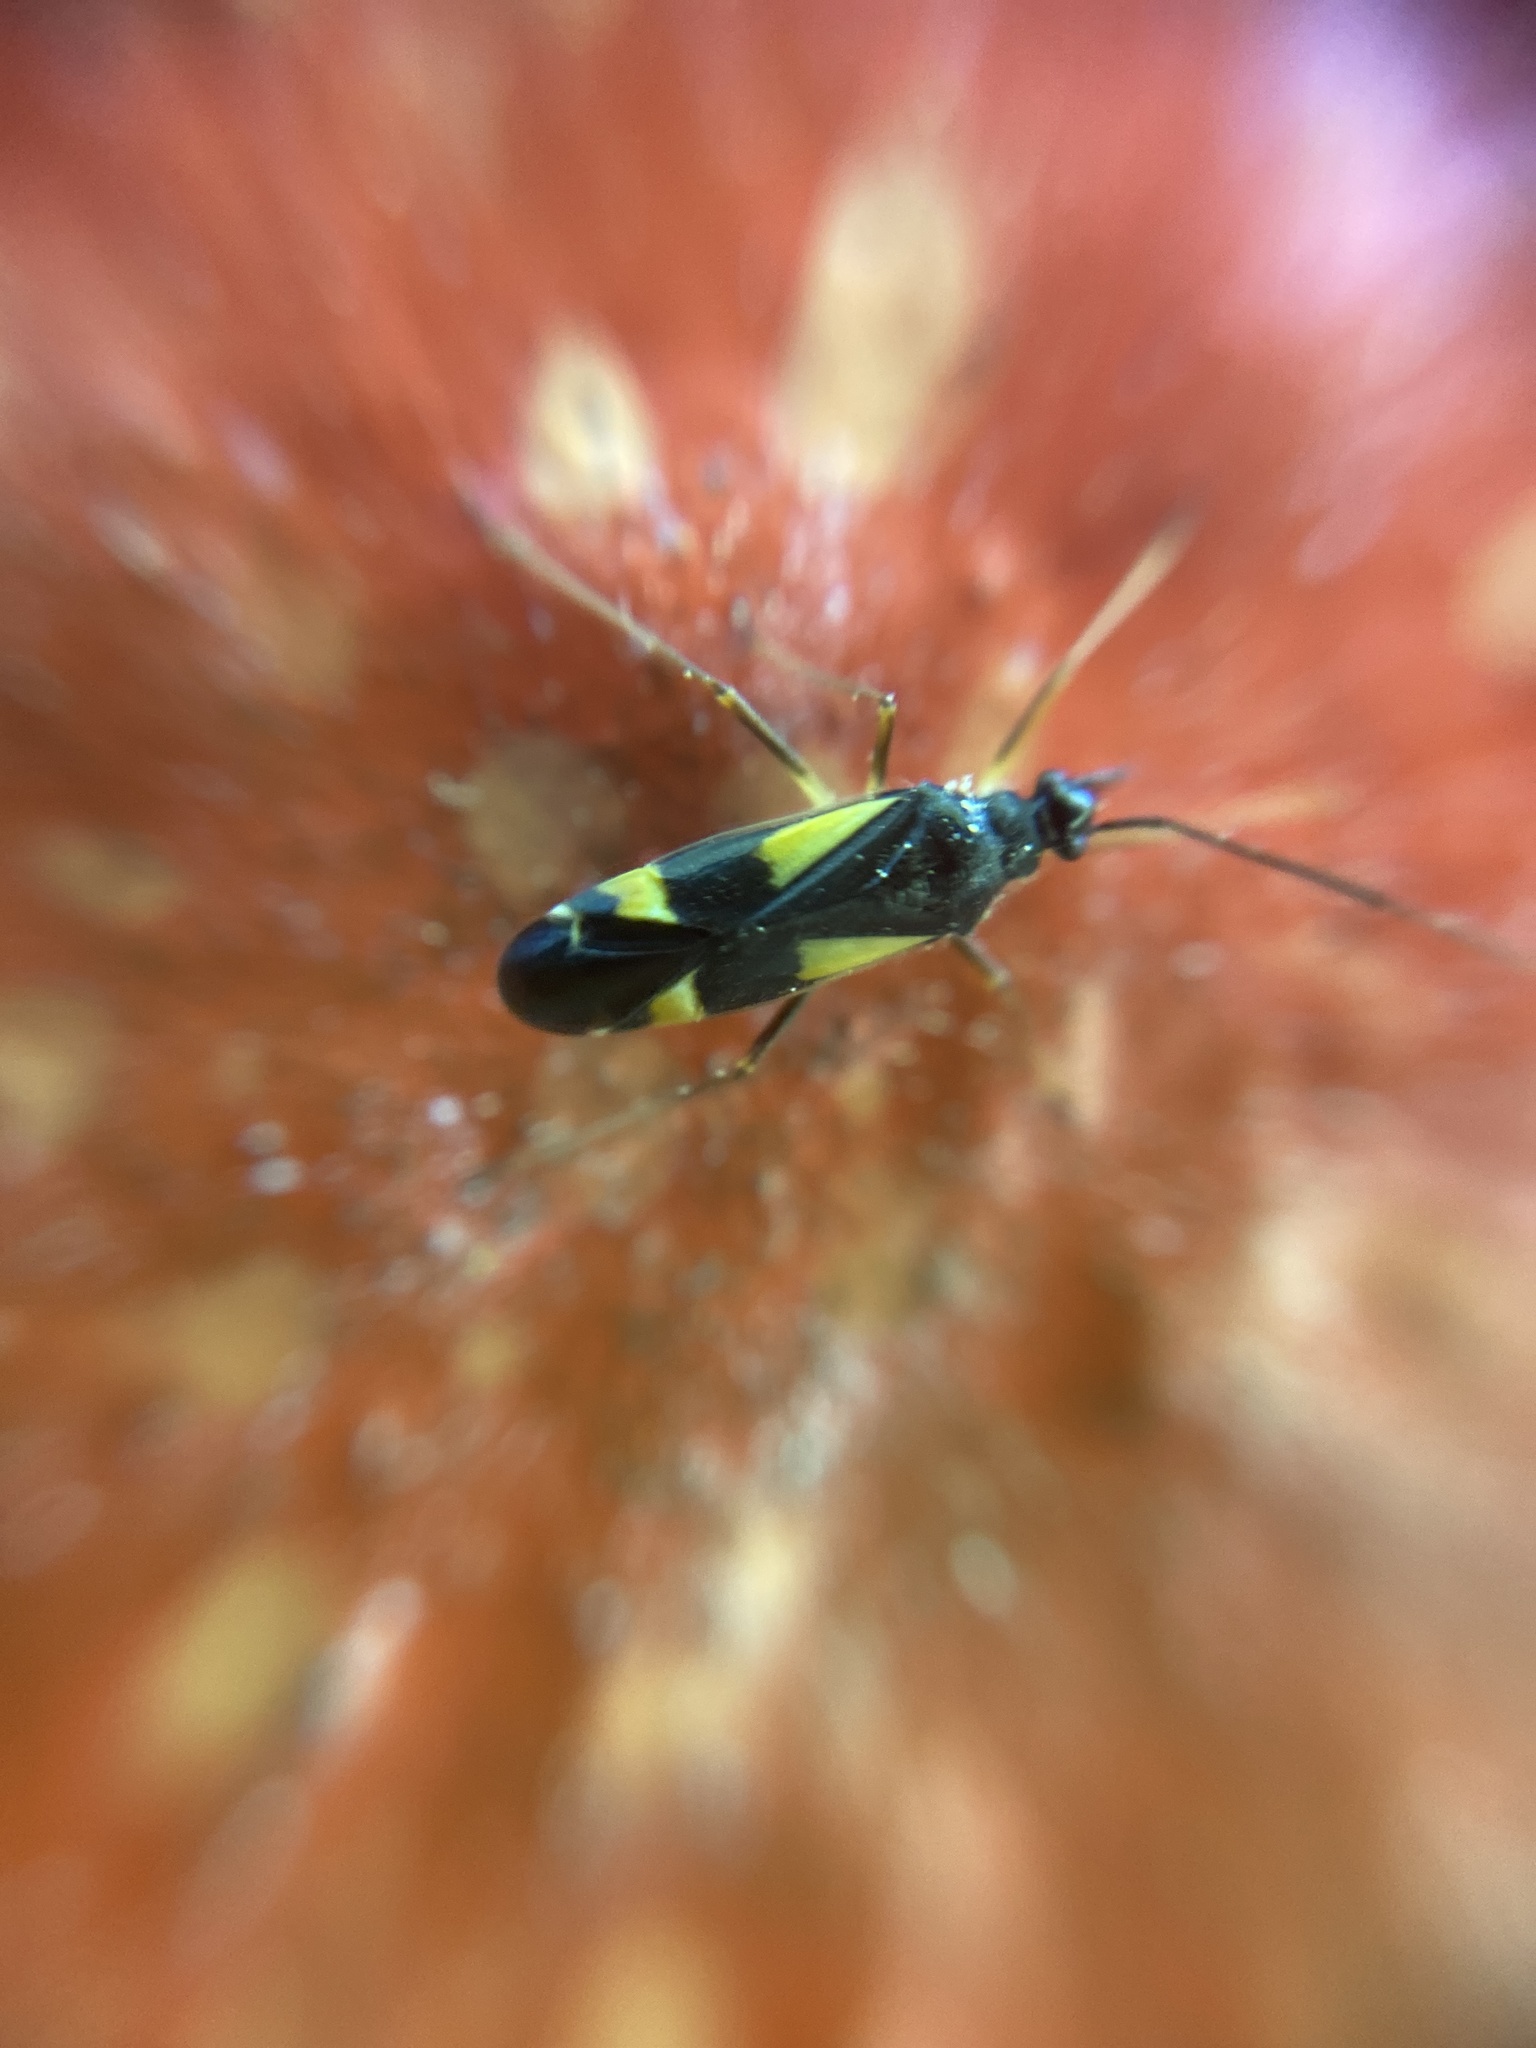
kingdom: Animalia
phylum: Arthropoda
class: Insecta
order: Hemiptera
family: Miridae
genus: Dryophilocoris
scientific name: Dryophilocoris flavoquadrimaculatus
